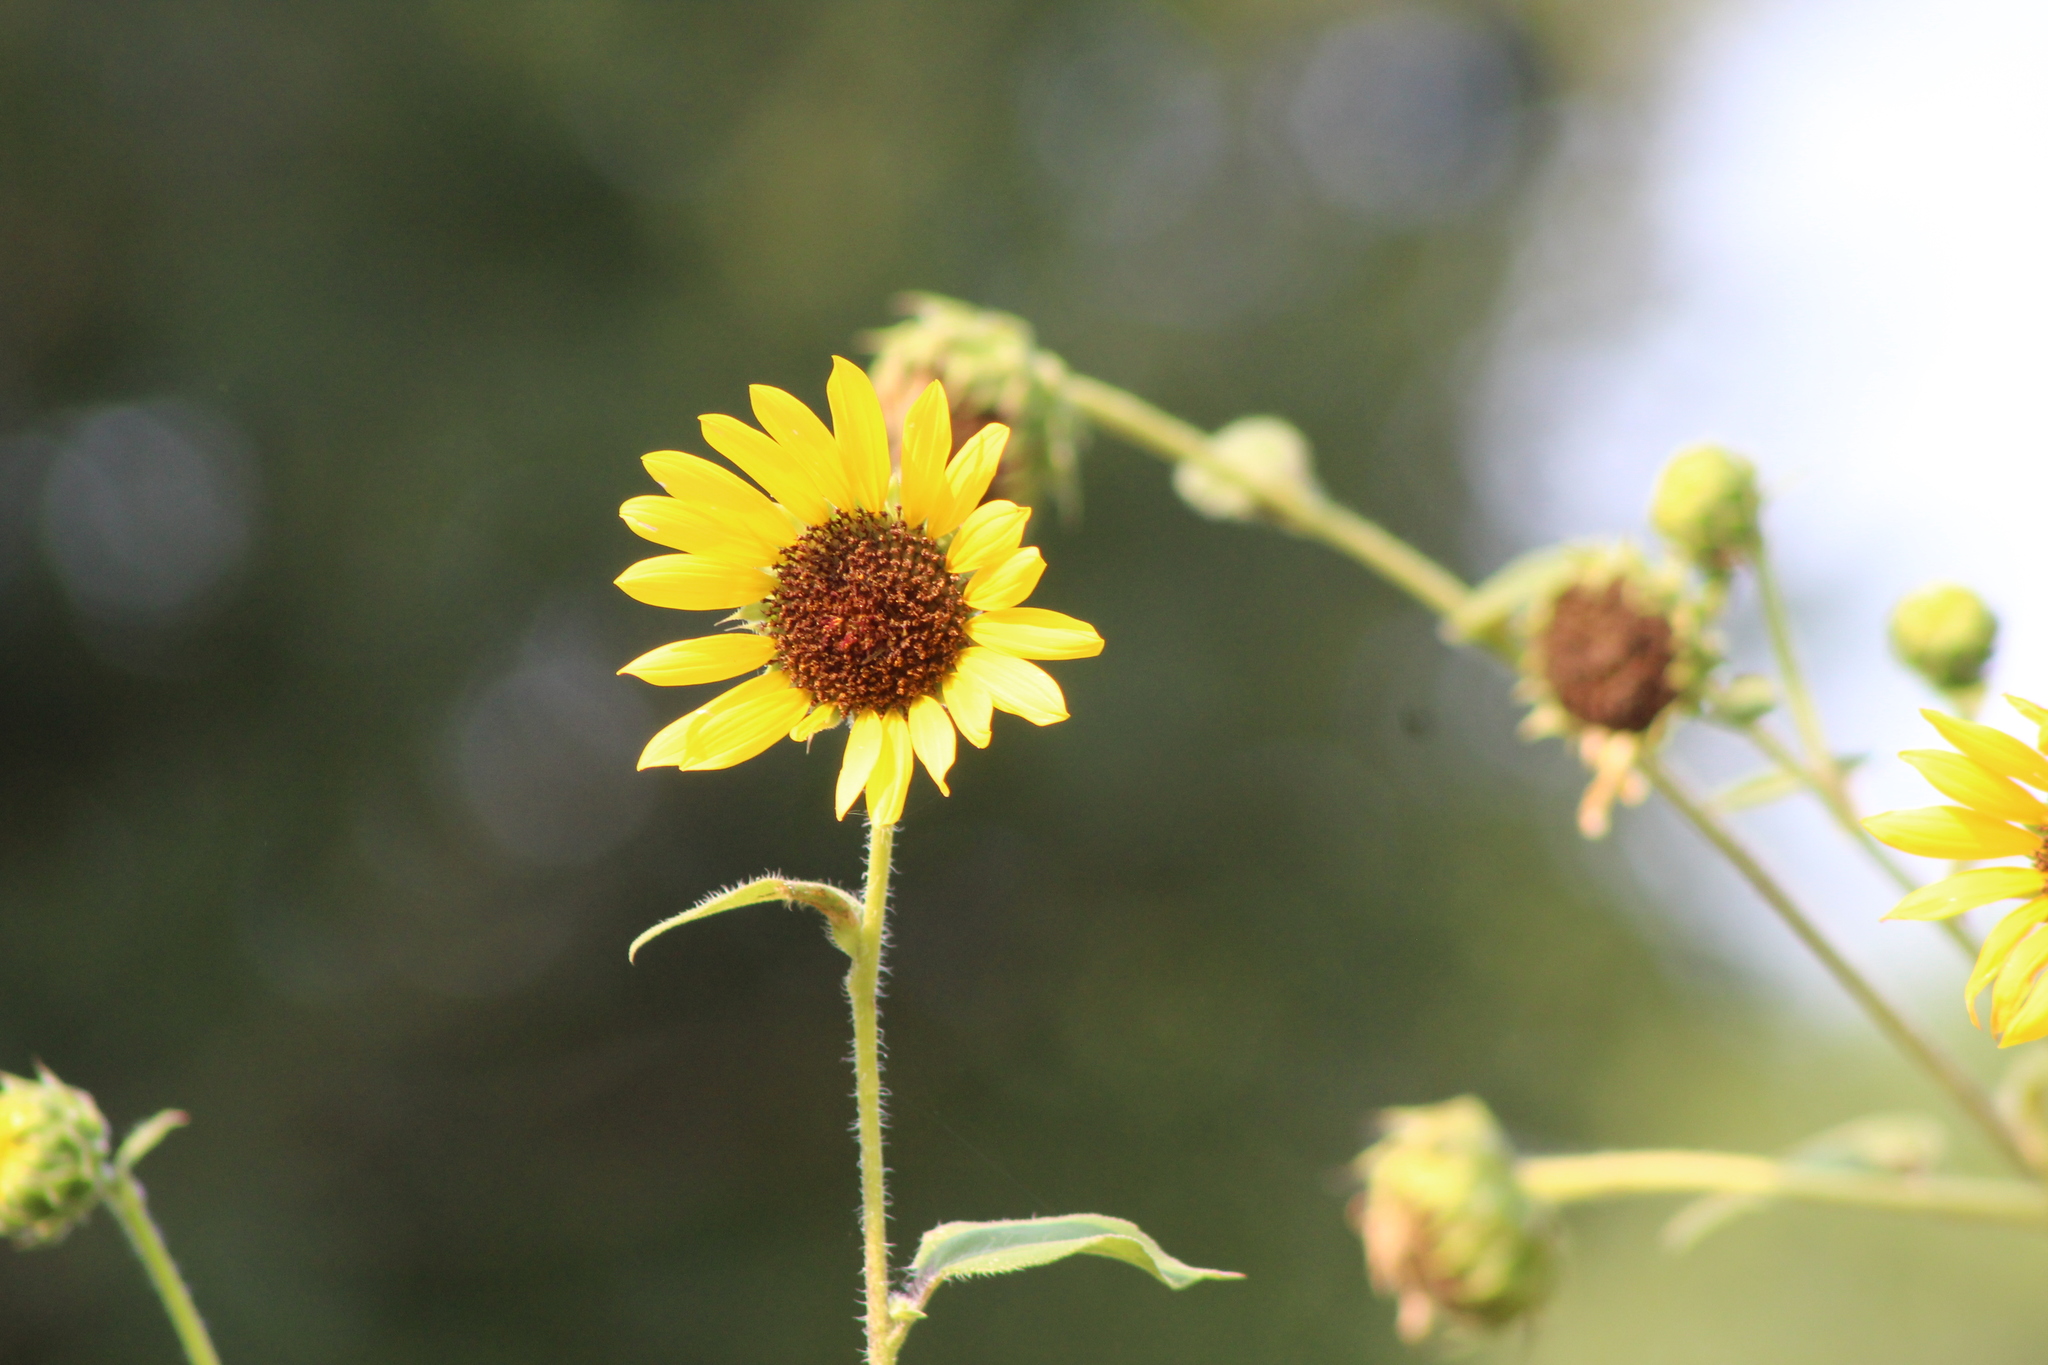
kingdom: Plantae
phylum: Tracheophyta
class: Magnoliopsida
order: Asterales
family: Asteraceae
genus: Helianthus
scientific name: Helianthus annuus
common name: Sunflower
